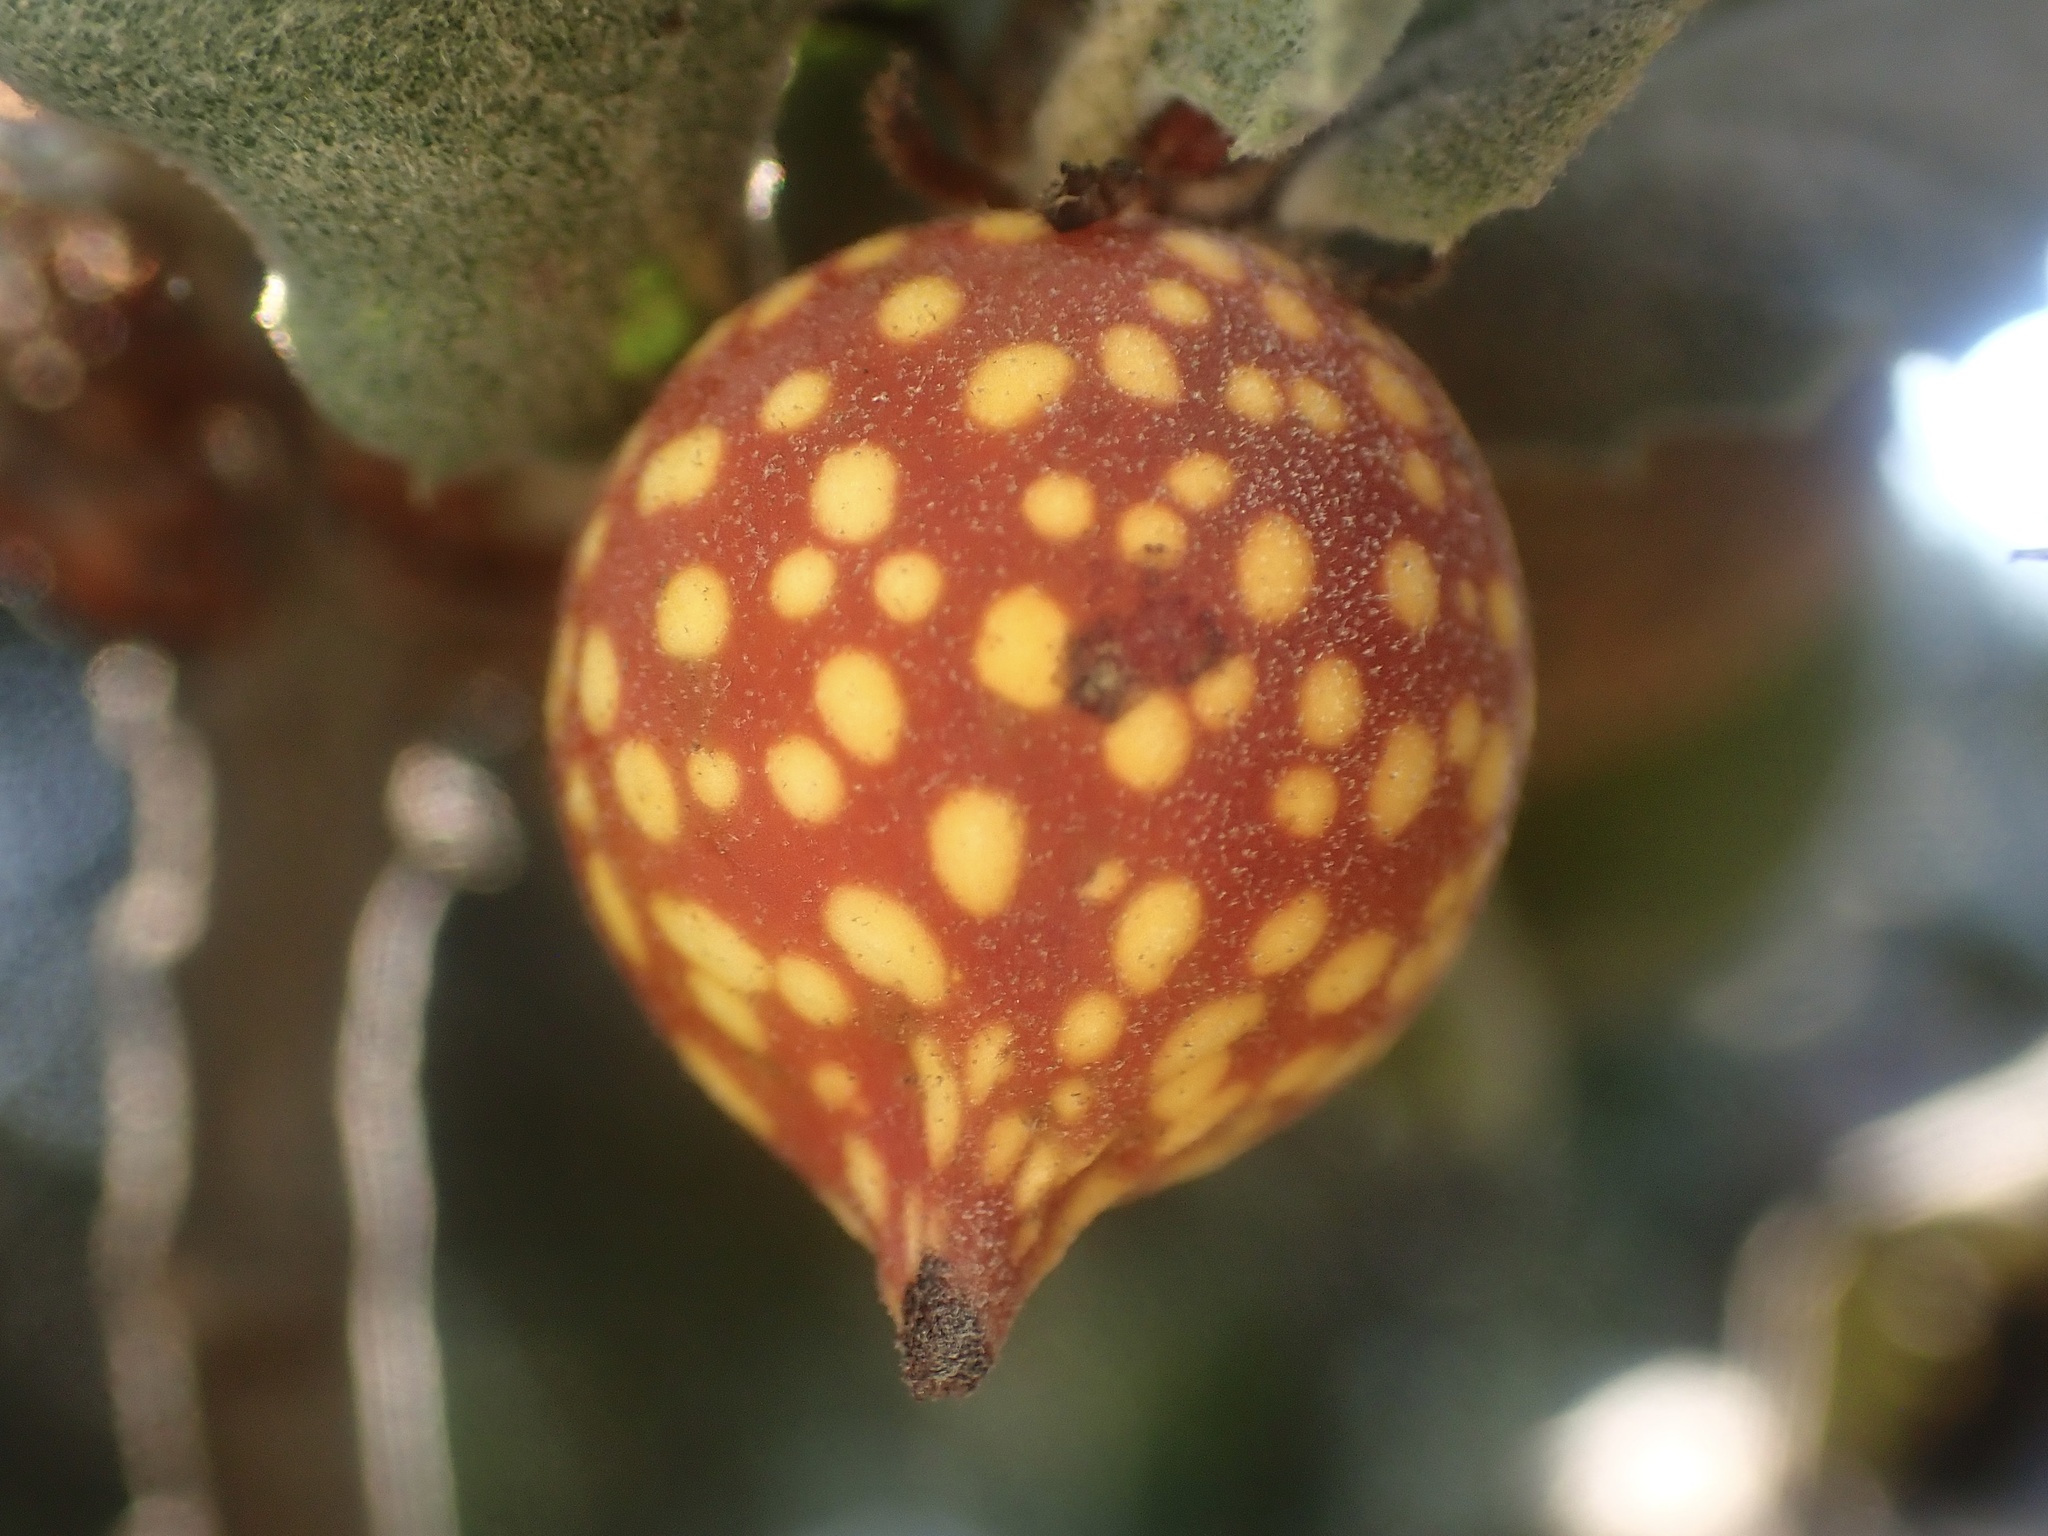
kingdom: Animalia
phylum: Arthropoda
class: Insecta
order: Hymenoptera
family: Cynipidae
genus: Burnettweldia
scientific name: Burnettweldia
